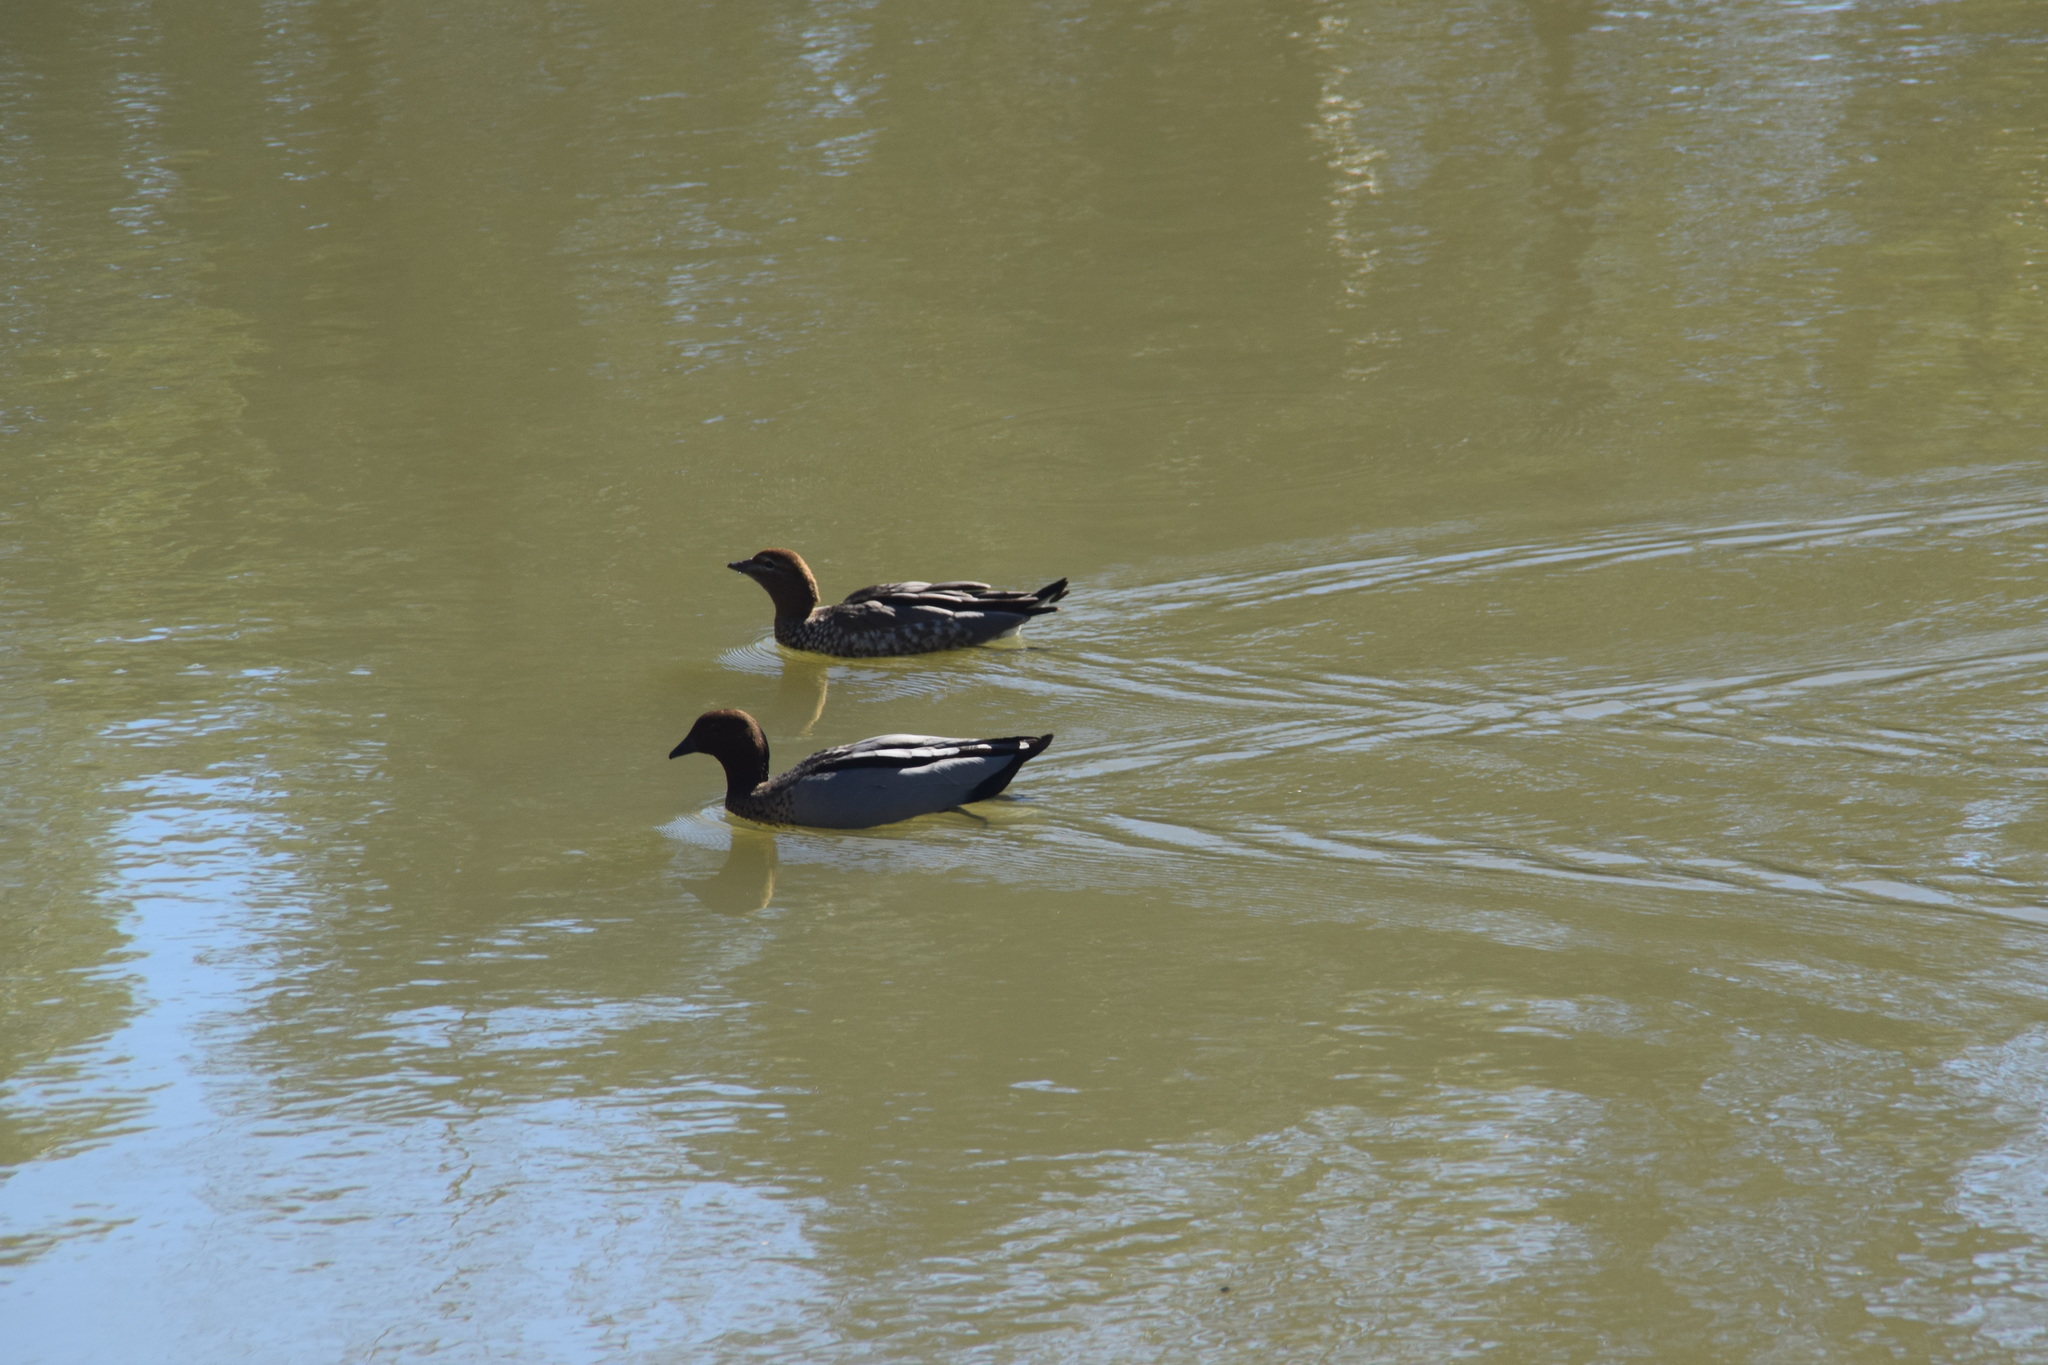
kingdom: Animalia
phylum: Chordata
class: Aves
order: Anseriformes
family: Anatidae
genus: Chenonetta
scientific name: Chenonetta jubata
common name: Maned duck
